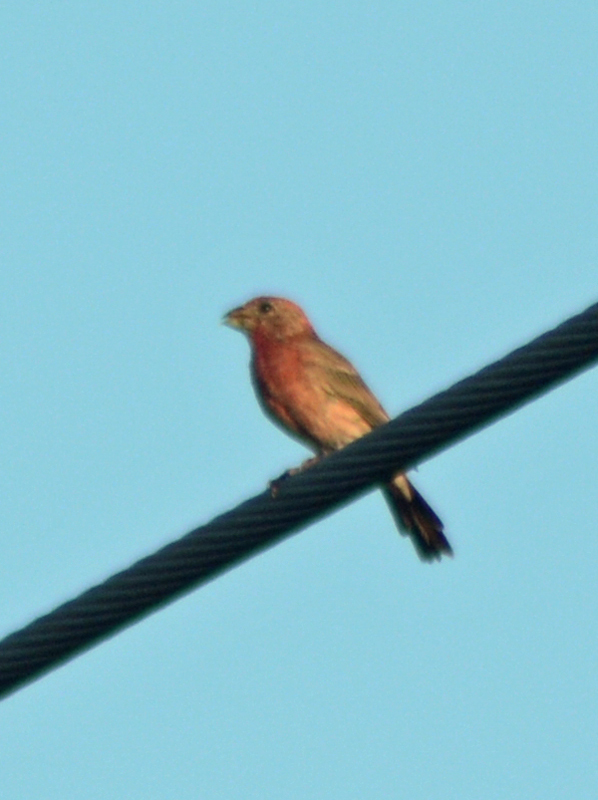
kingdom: Animalia
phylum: Chordata
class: Aves
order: Passeriformes
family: Fringillidae
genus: Haemorhous
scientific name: Haemorhous mexicanus
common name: House finch
